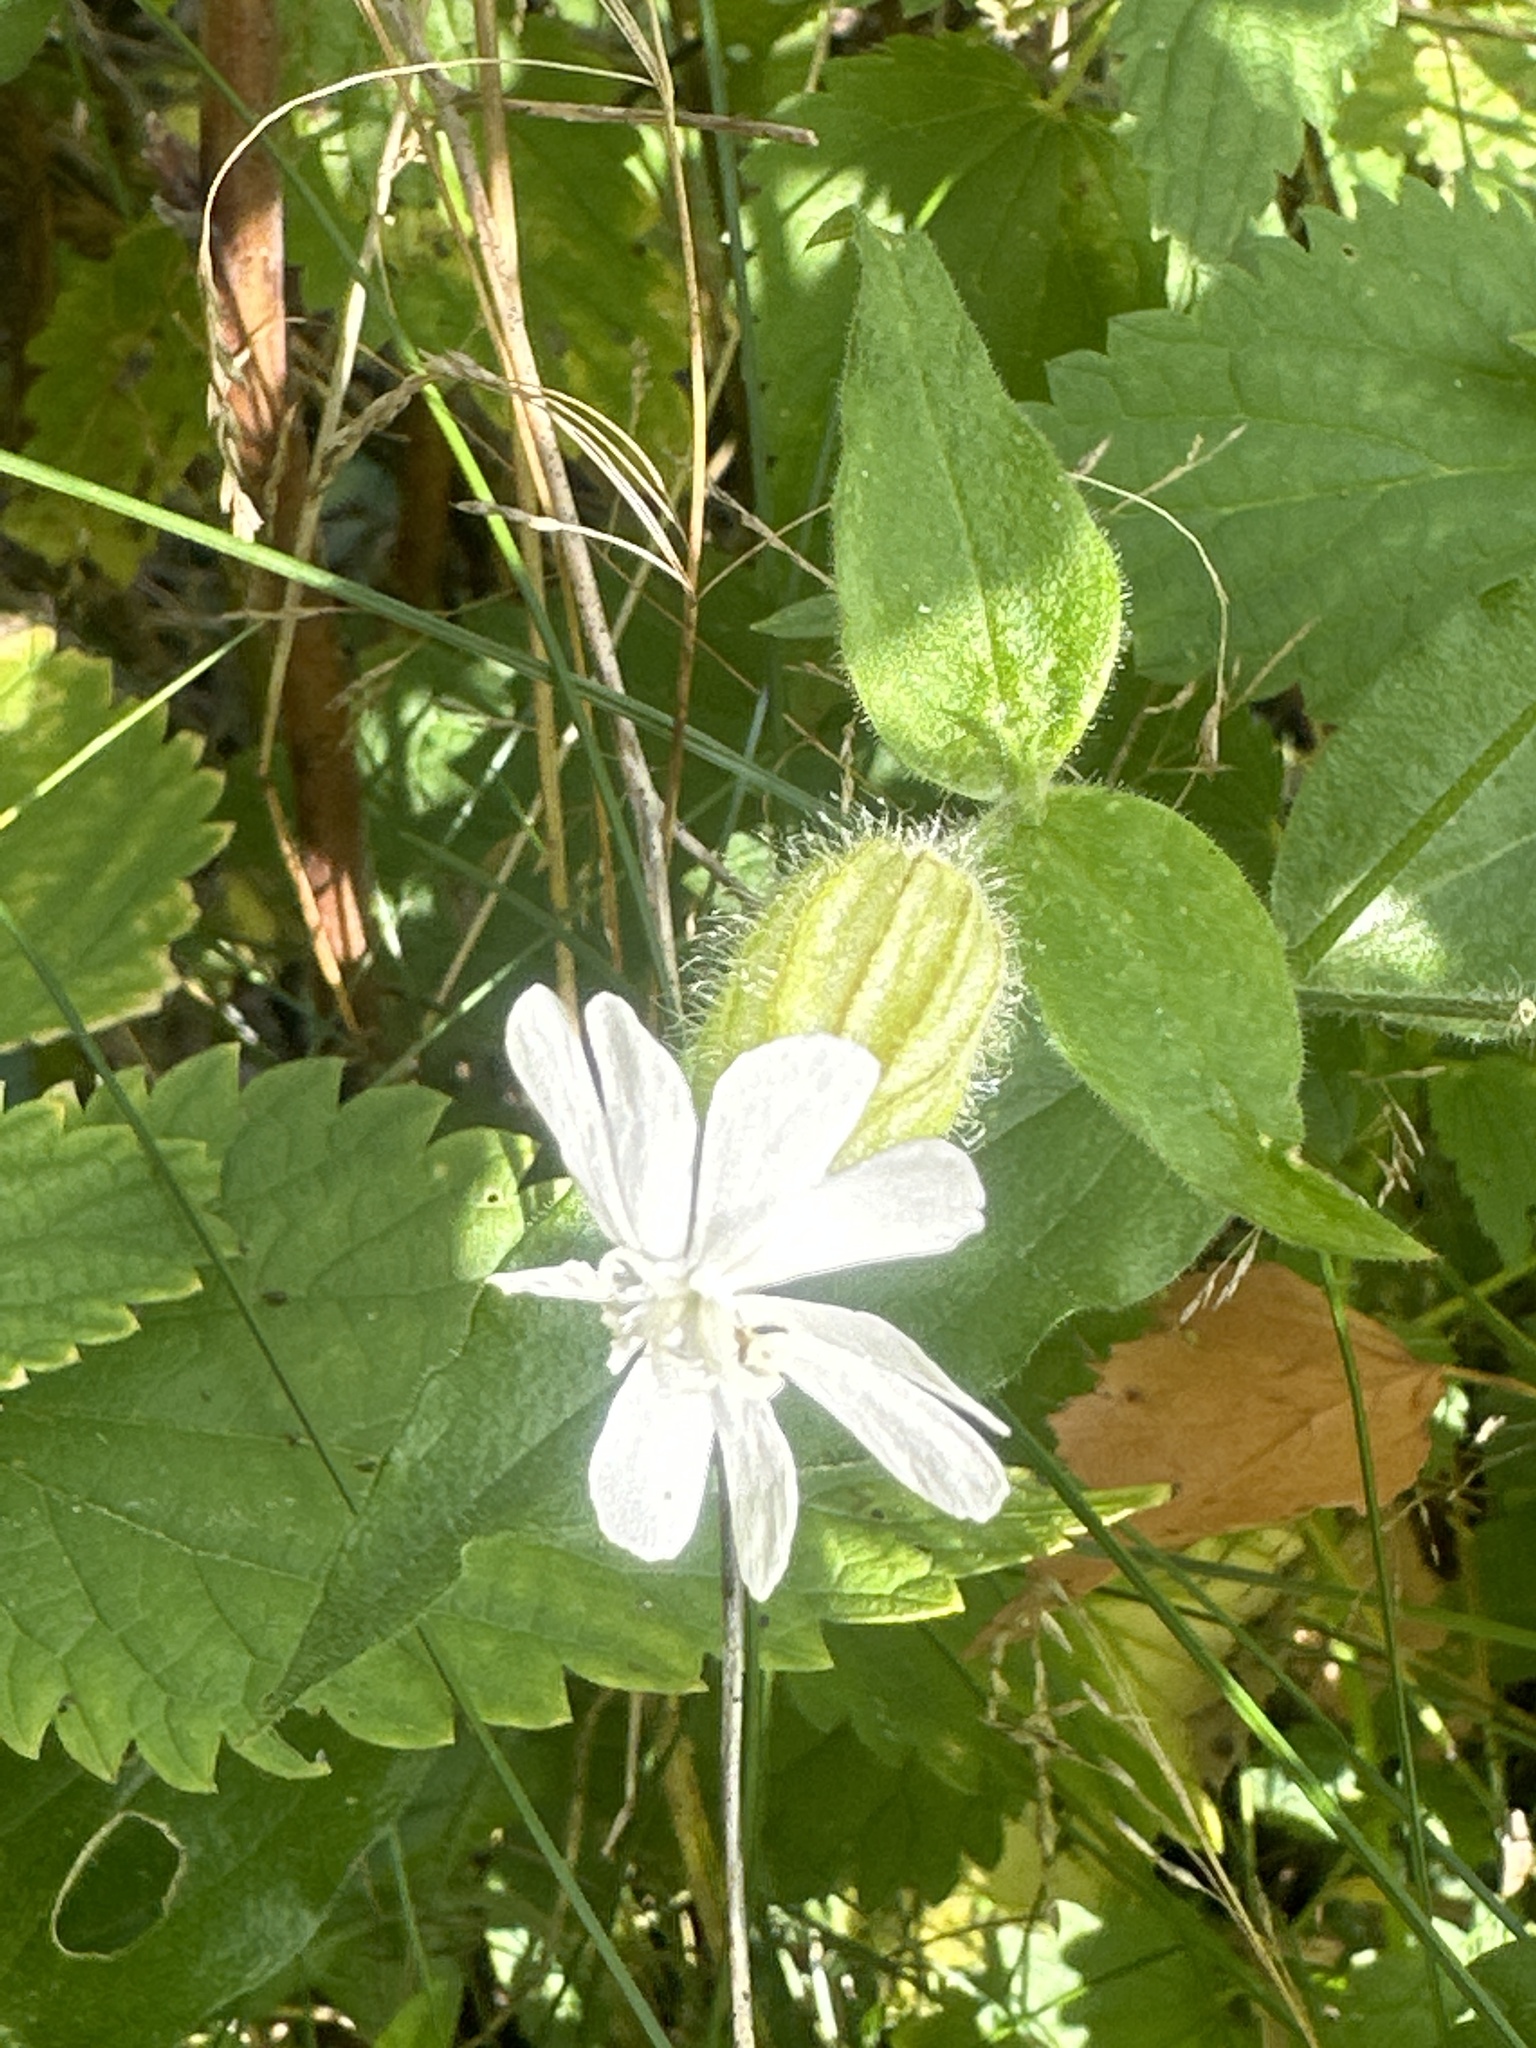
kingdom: Plantae
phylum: Tracheophyta
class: Magnoliopsida
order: Caryophyllales
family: Caryophyllaceae
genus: Silene
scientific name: Silene latifolia
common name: White campion
